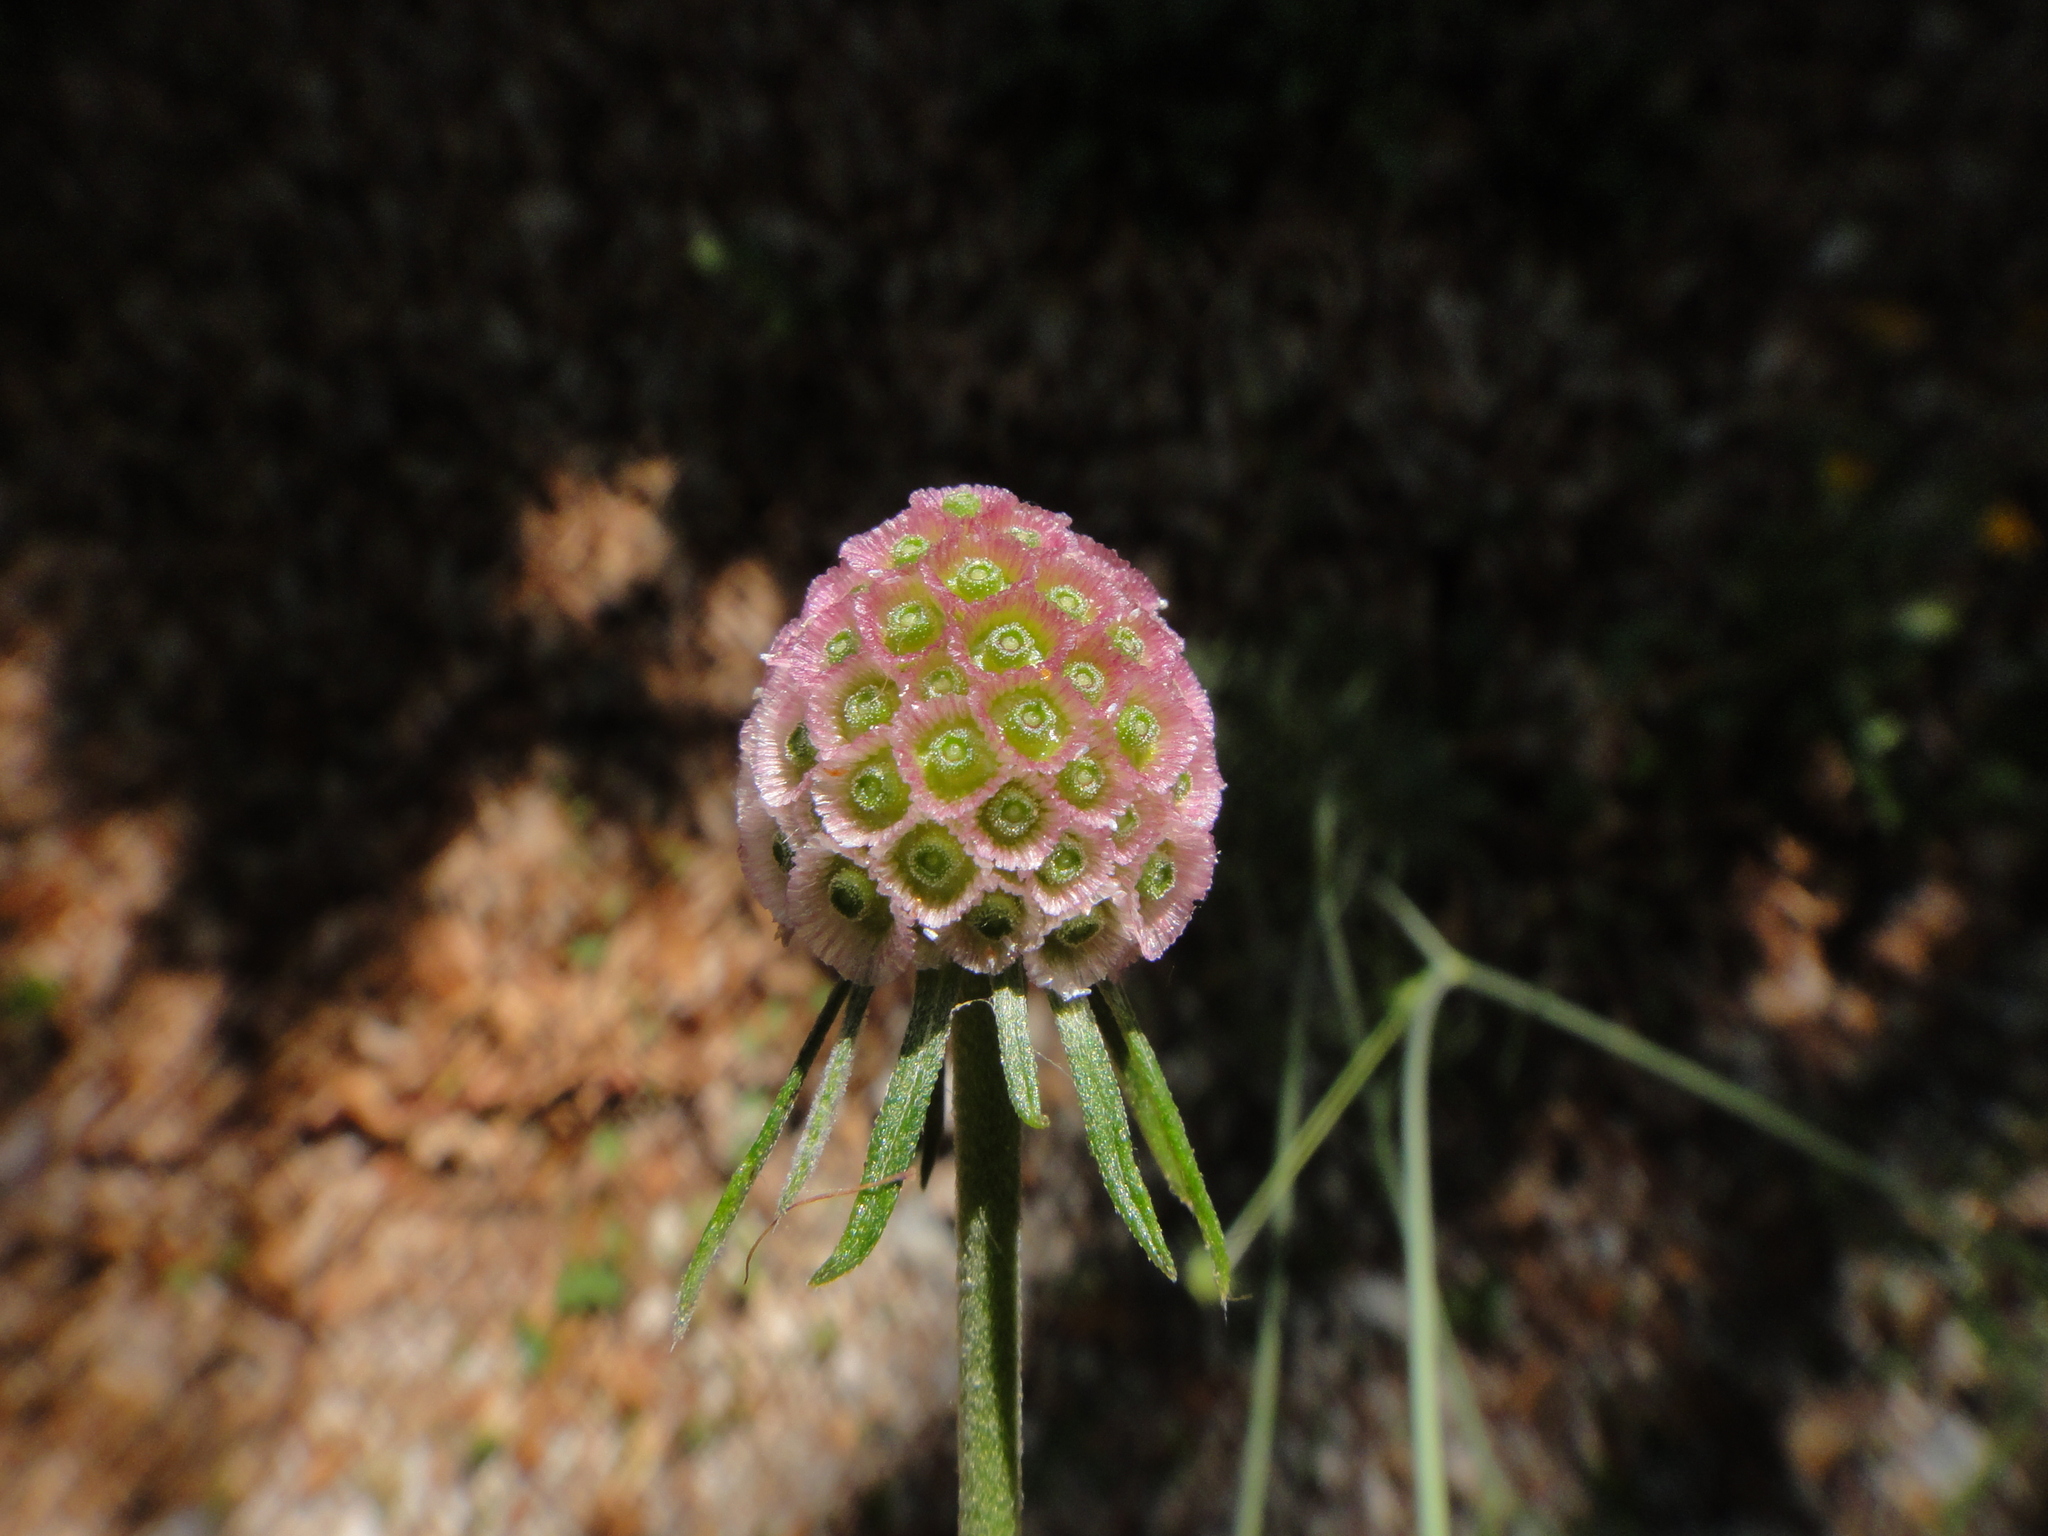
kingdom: Plantae
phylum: Tracheophyta
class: Magnoliopsida
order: Dipsacales
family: Caprifoliaceae
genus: Scabiosa
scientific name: Scabiosa triandra
